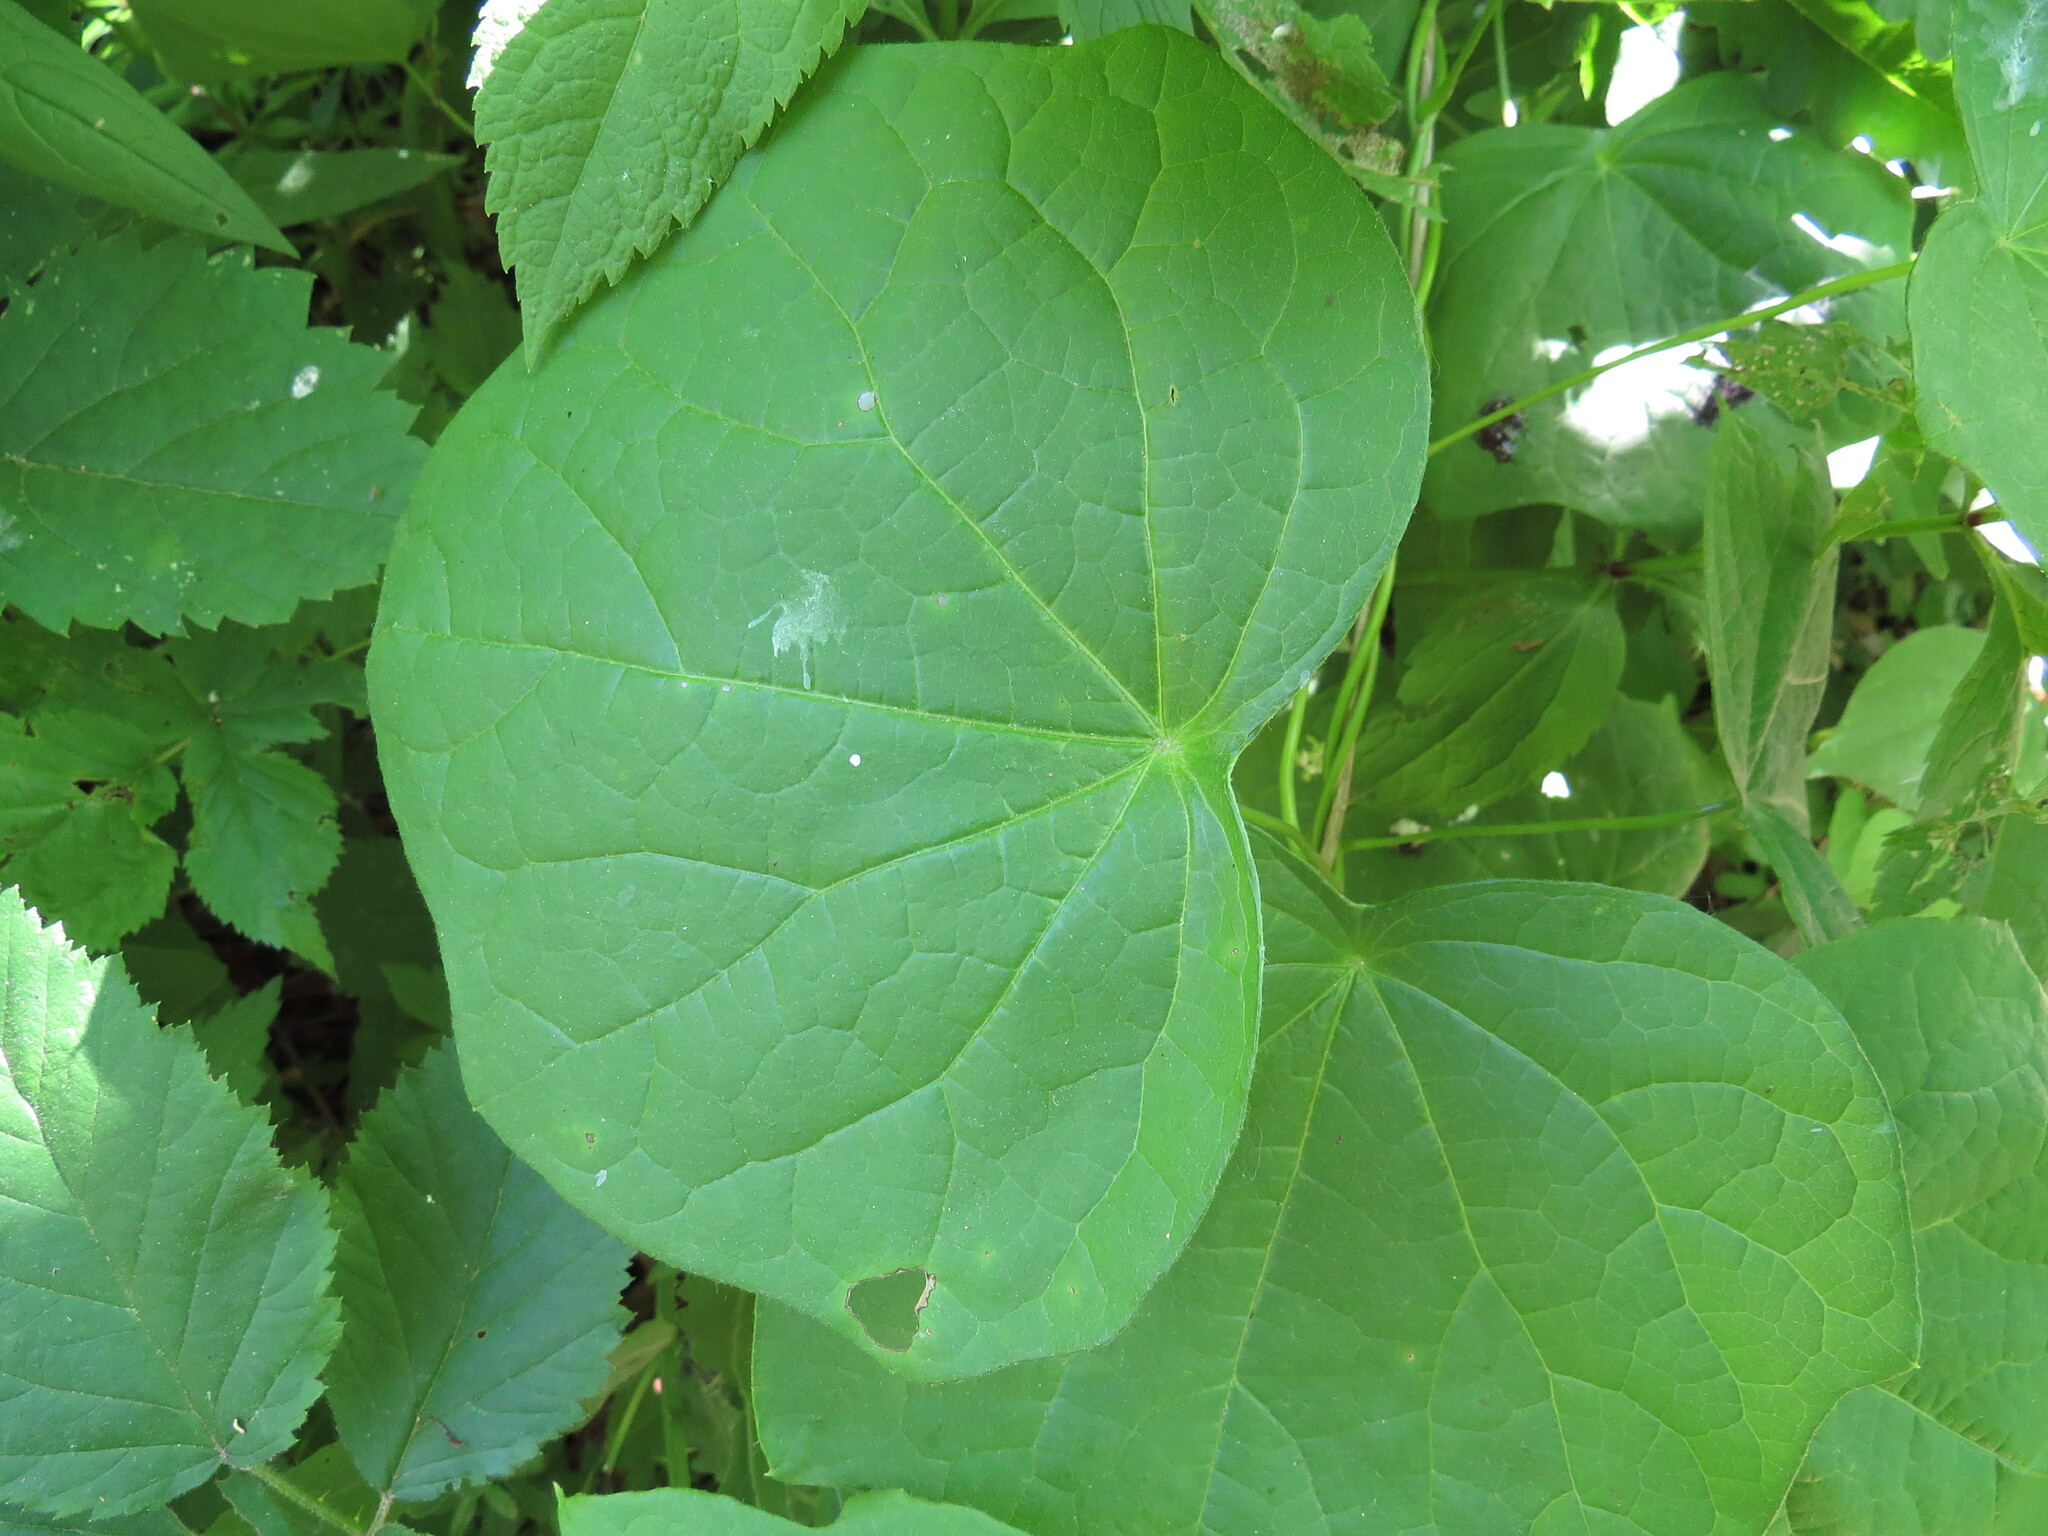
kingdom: Plantae
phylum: Tracheophyta
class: Magnoliopsida
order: Ranunculales
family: Menispermaceae
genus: Menispermum
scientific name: Menispermum canadense
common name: Moonseed
